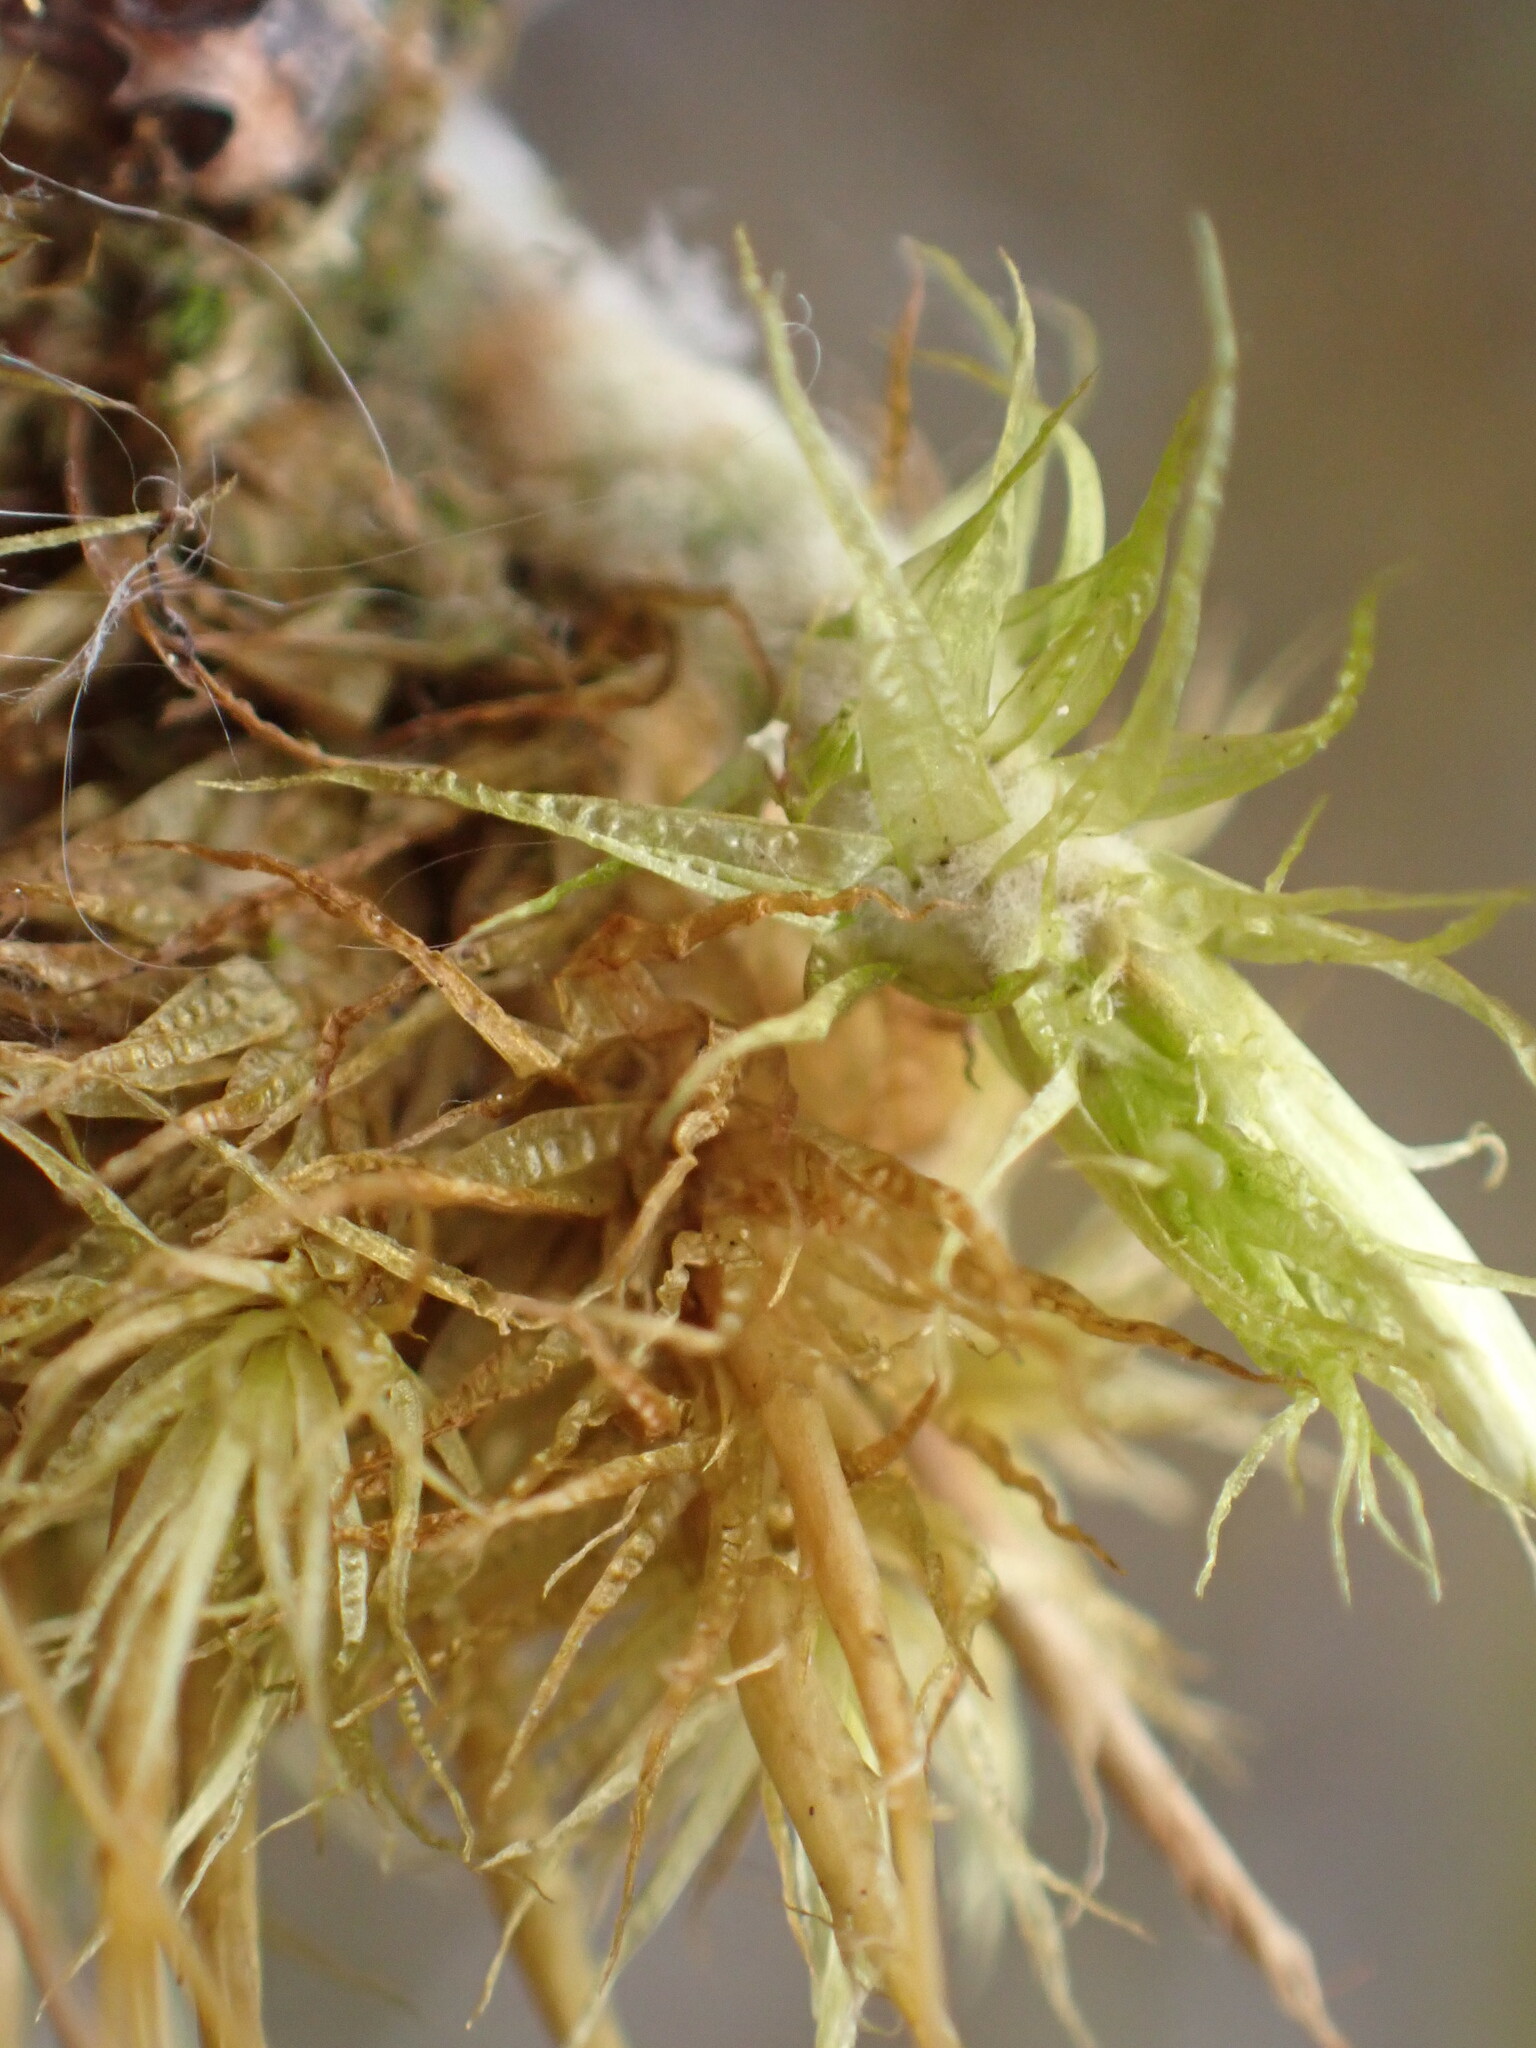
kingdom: Plantae
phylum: Bryophyta
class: Bryopsida
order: Dicranales
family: Dicranaceae
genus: Dicranum
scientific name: Dicranum polysetum
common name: Rugose fork-moss
